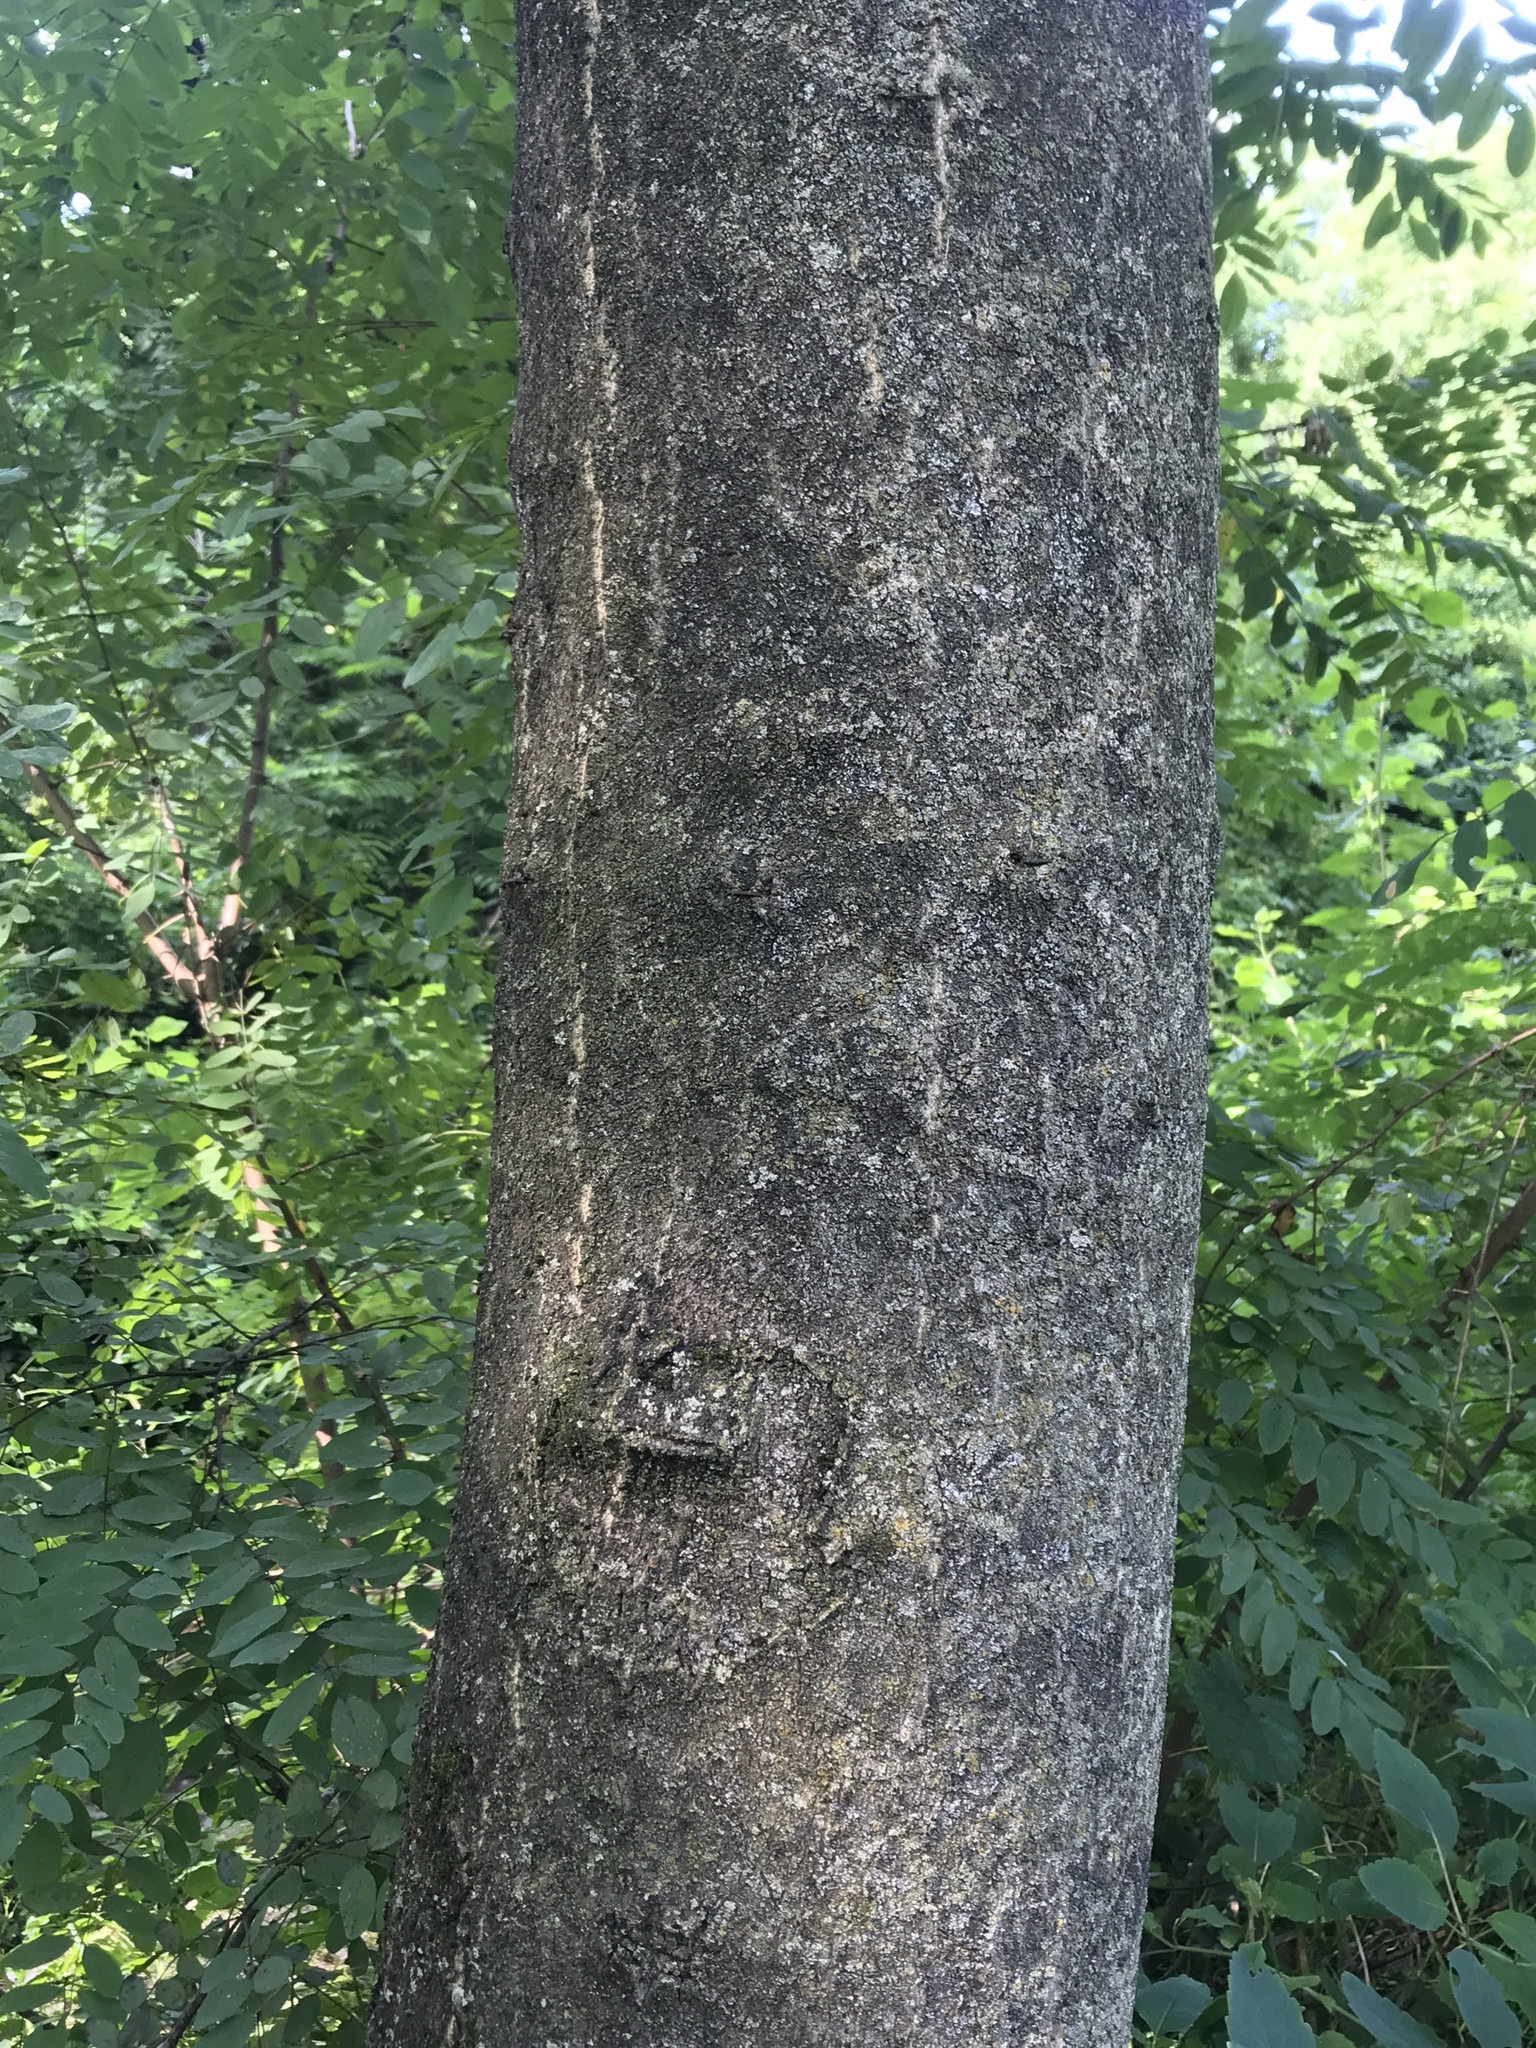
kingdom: Plantae
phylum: Tracheophyta
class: Magnoliopsida
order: Sapindales
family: Simaroubaceae
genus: Ailanthus
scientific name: Ailanthus altissima
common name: Tree-of-heaven
